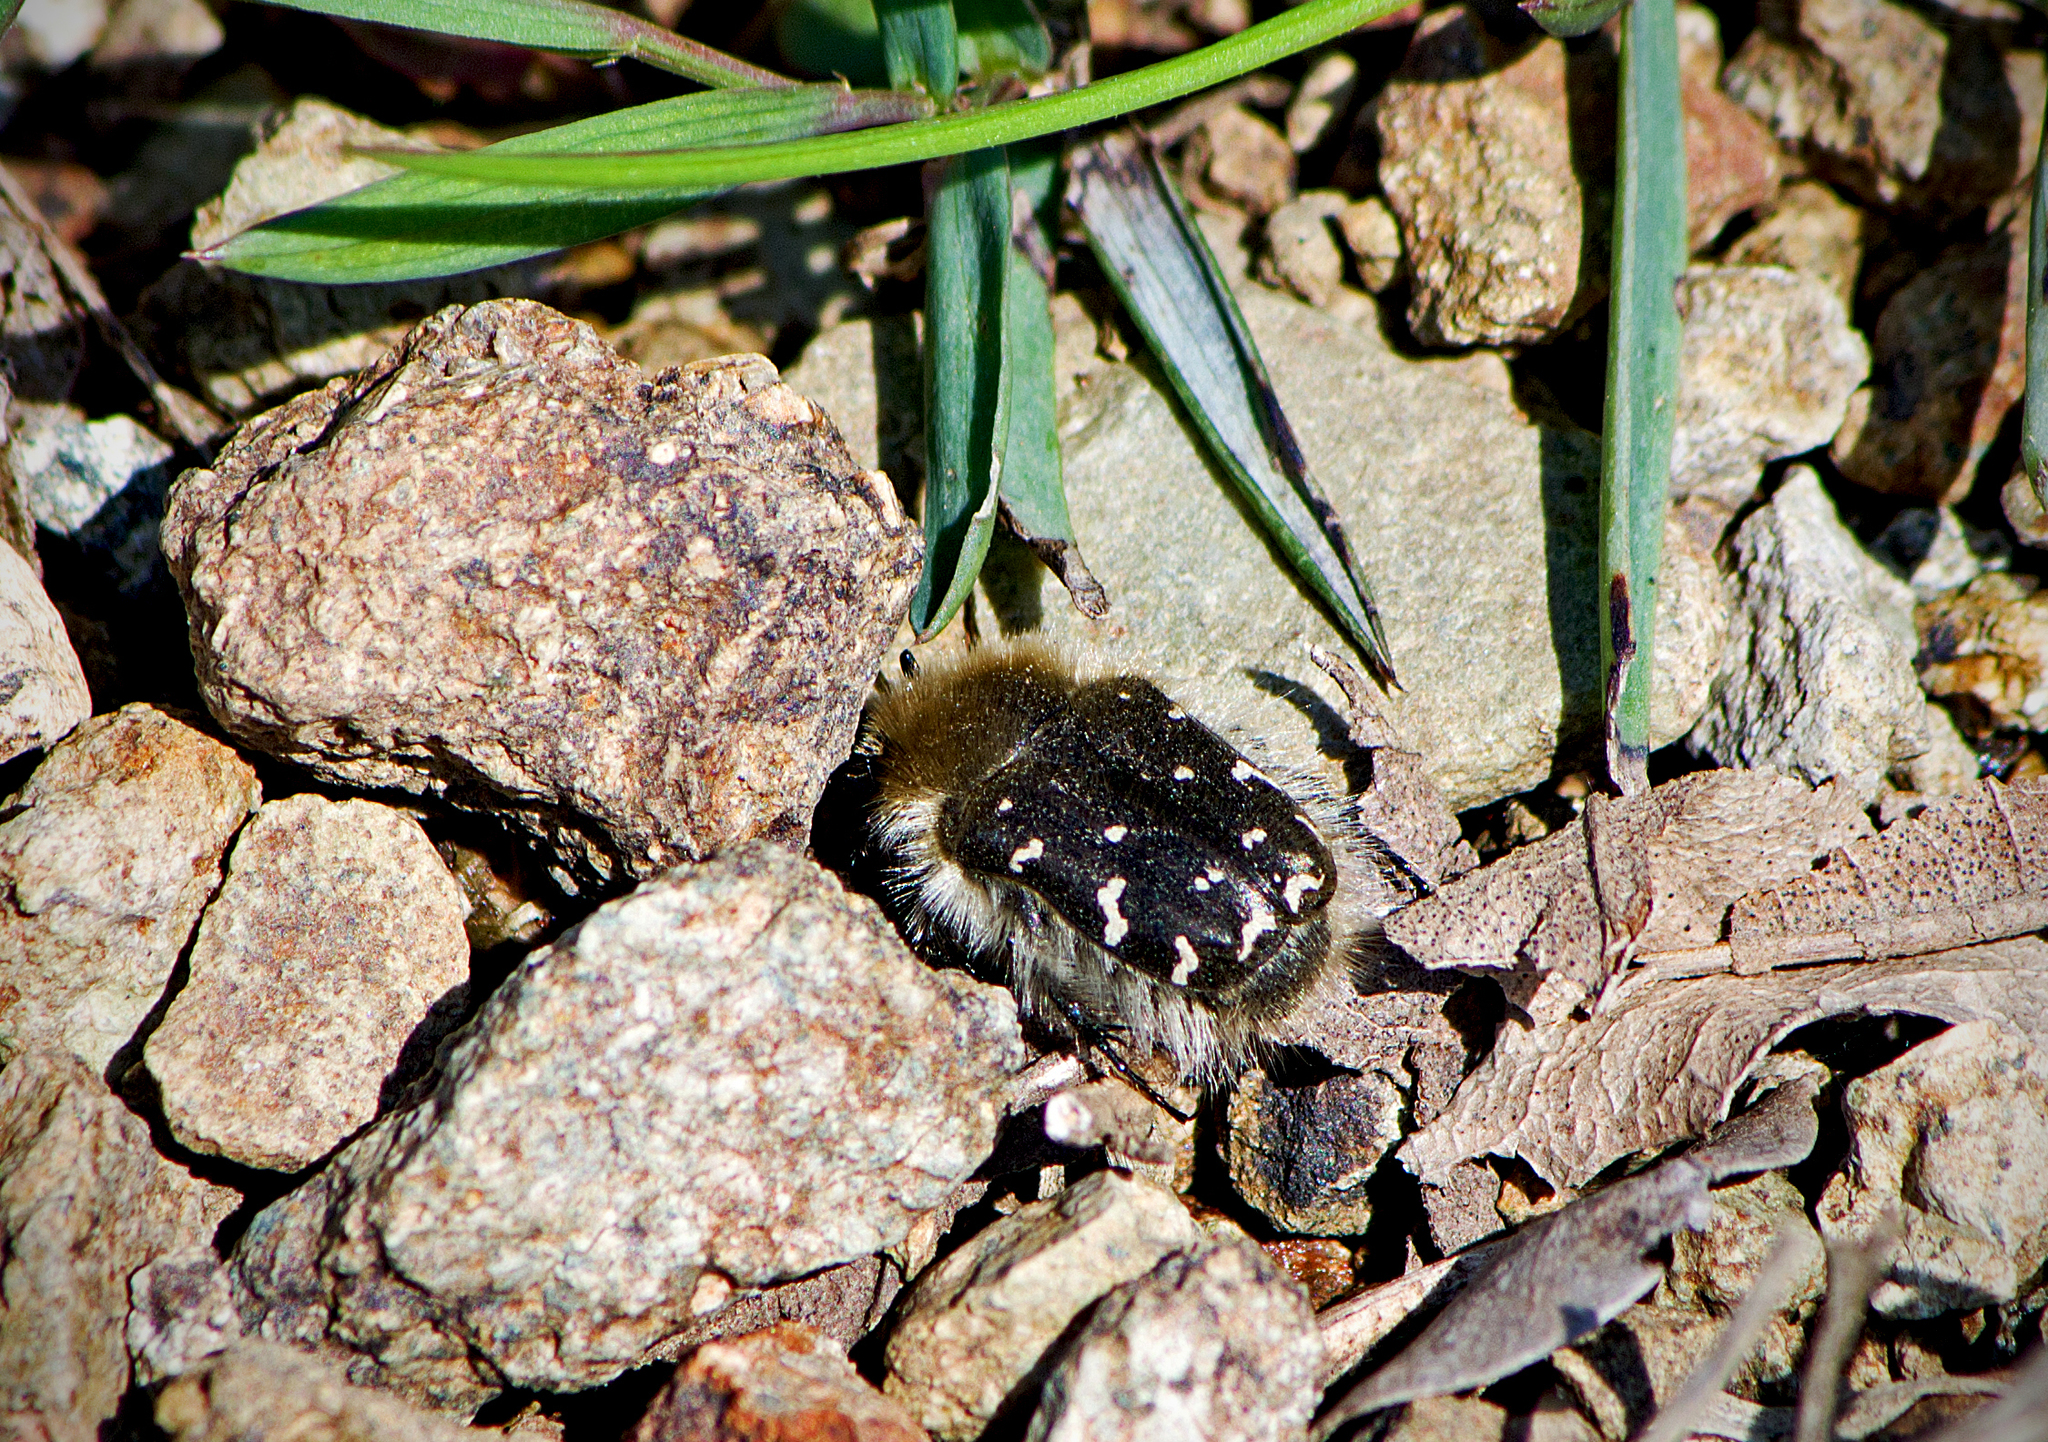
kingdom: Animalia
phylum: Arthropoda
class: Insecta
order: Coleoptera
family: Scarabaeidae
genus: Tropinota
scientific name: Tropinota hirta
